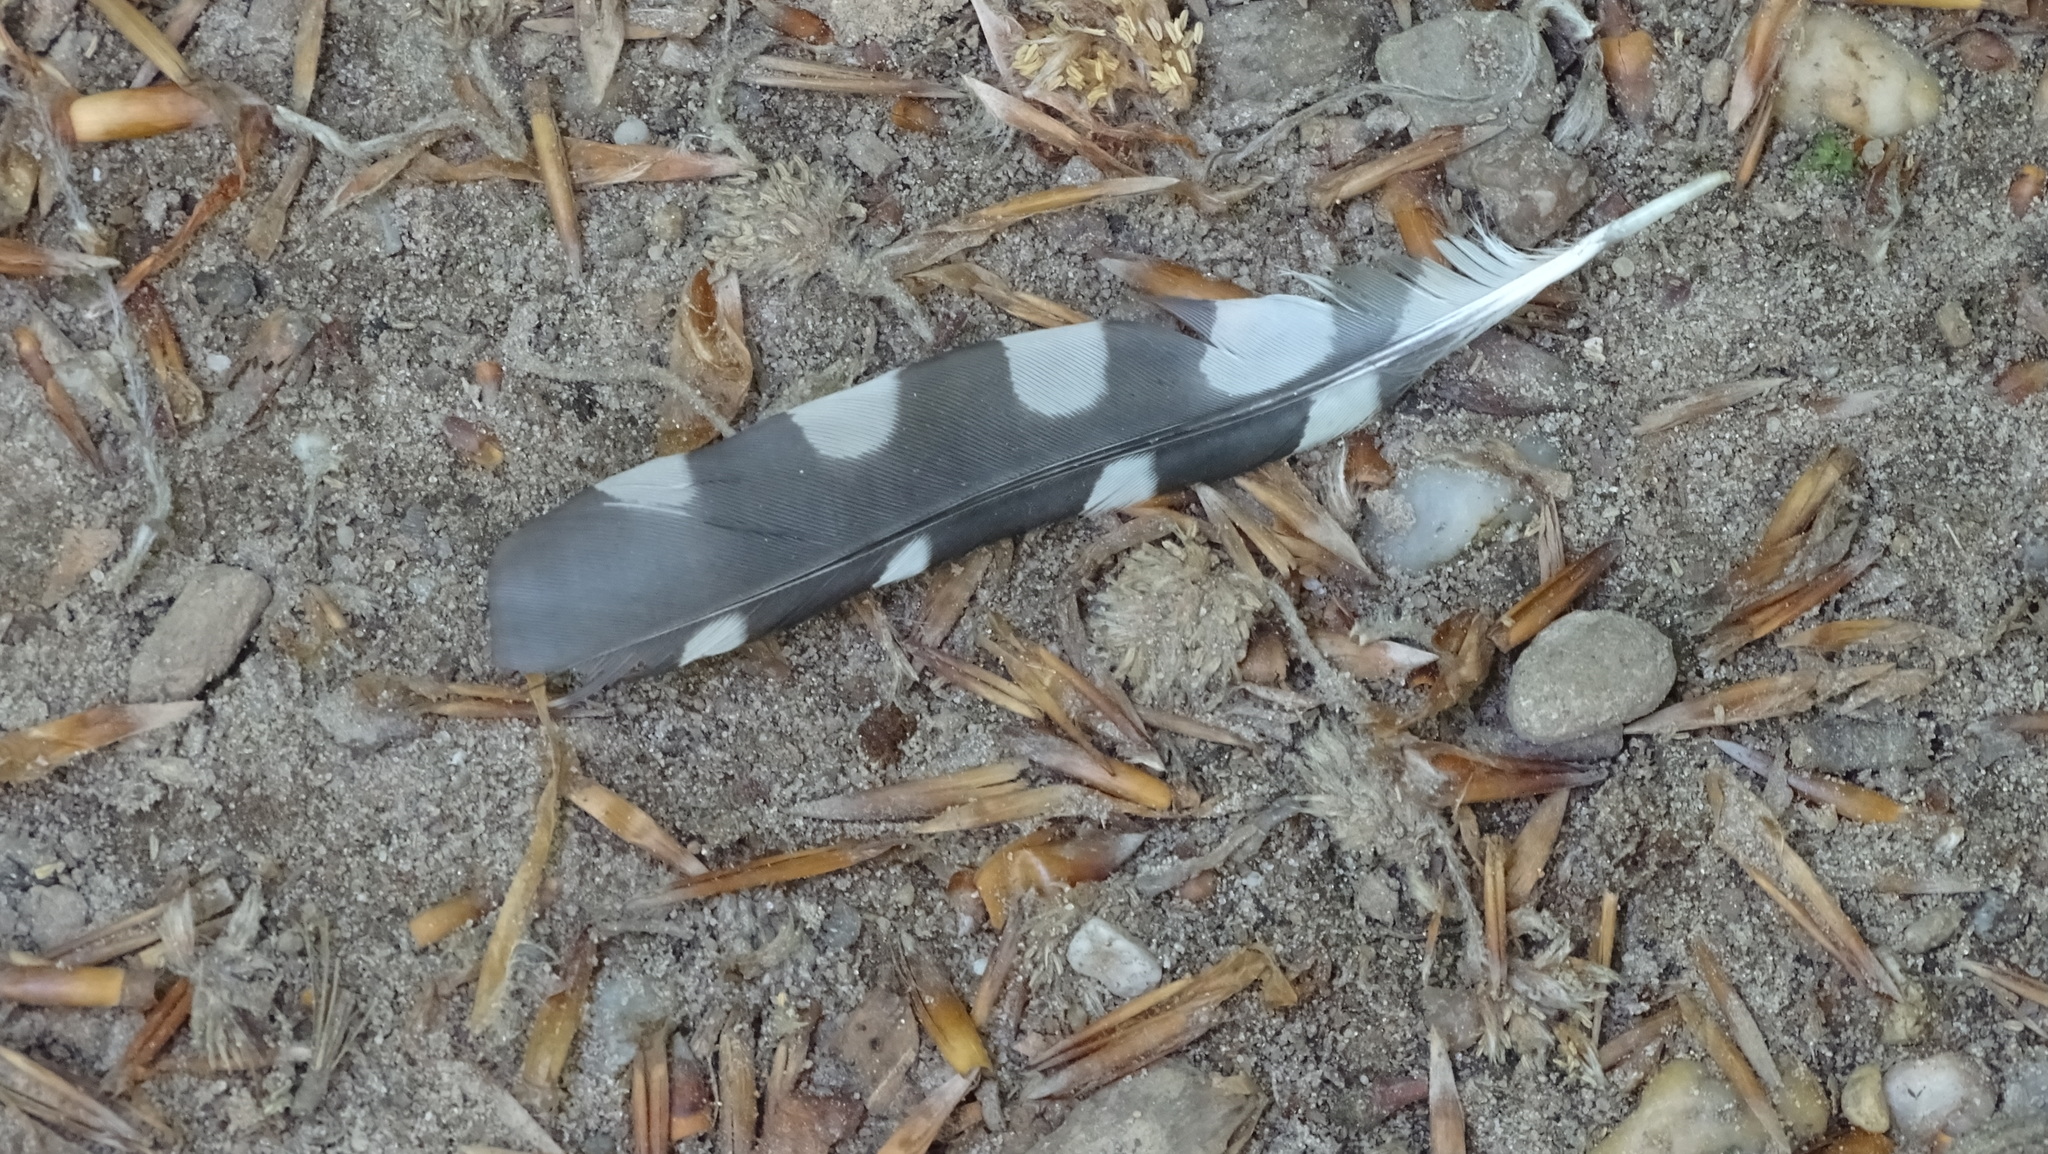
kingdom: Animalia
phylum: Chordata
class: Aves
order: Piciformes
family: Picidae
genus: Dendrocopos
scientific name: Dendrocopos major
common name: Great spotted woodpecker
